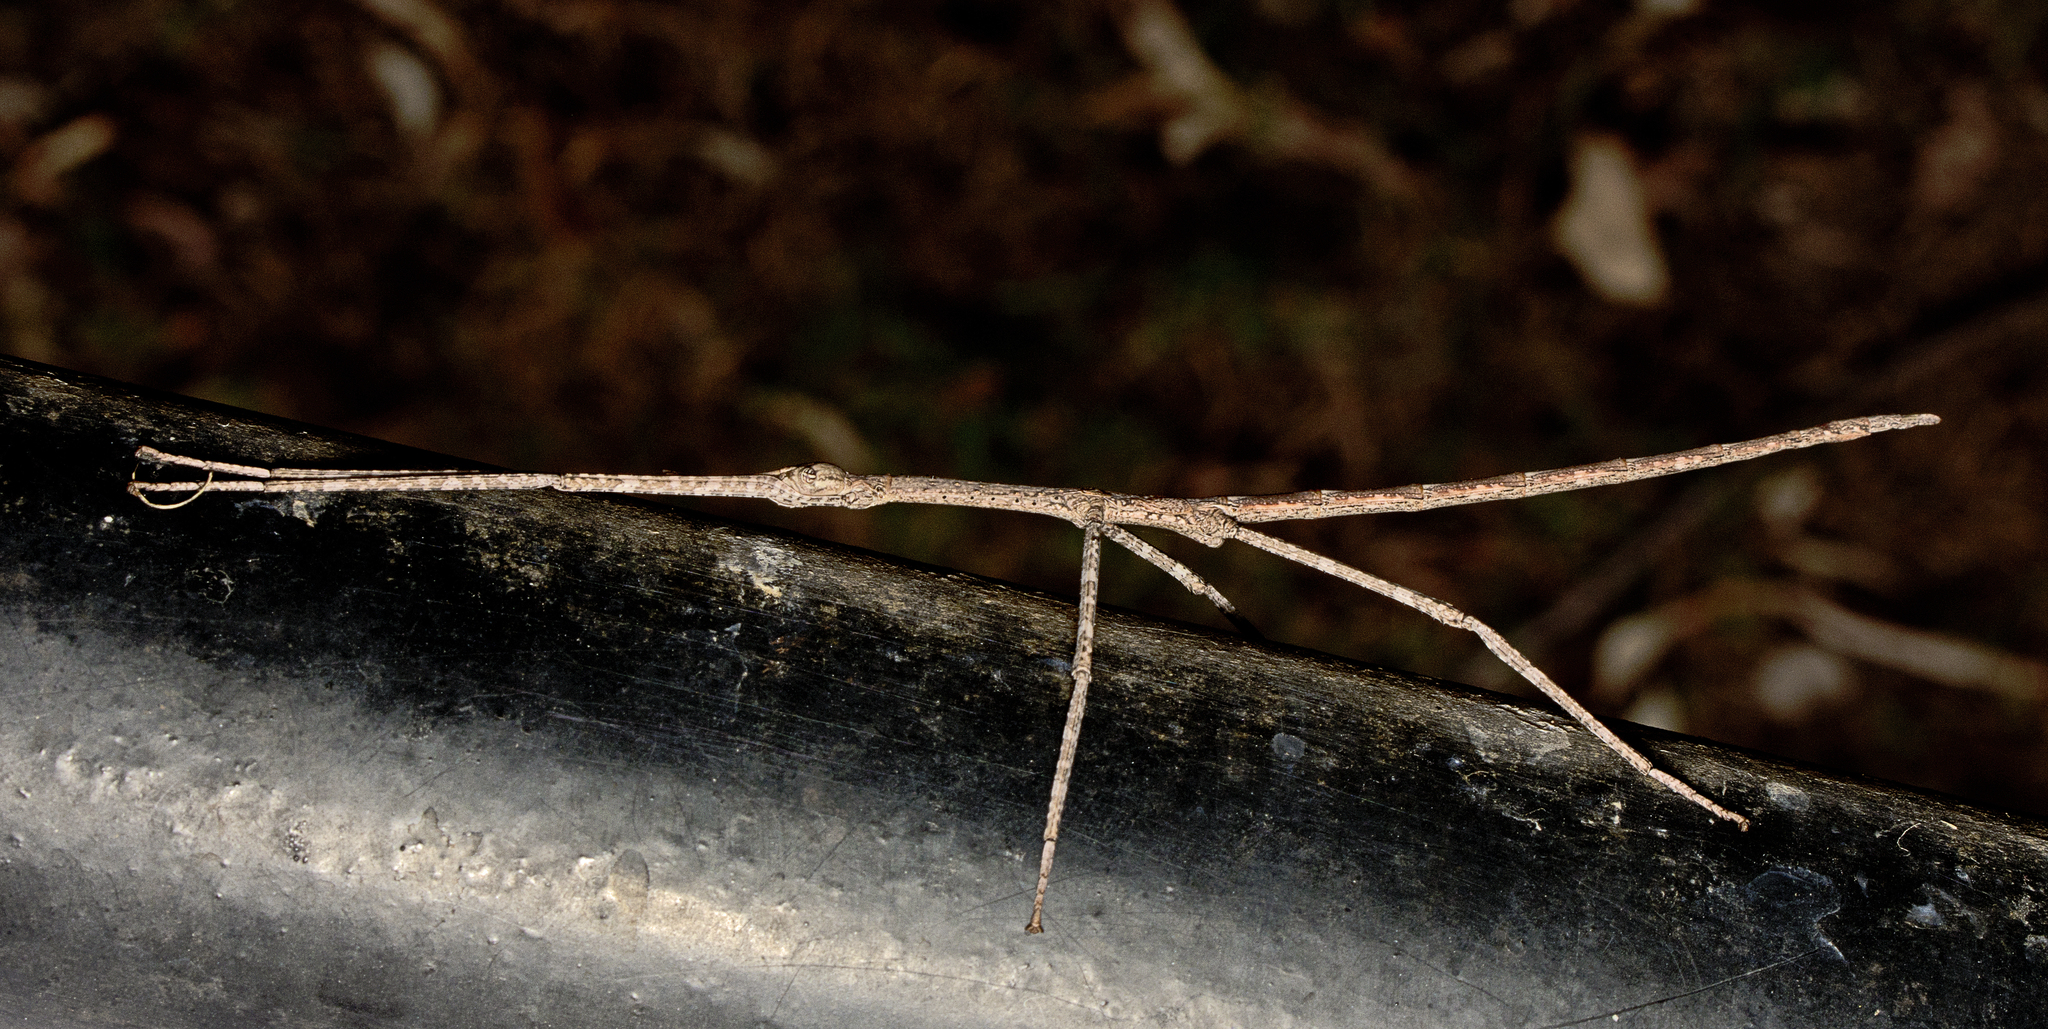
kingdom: Animalia
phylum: Arthropoda
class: Insecta
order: Phasmida
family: Phasmatidae
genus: Anchiale
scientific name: Anchiale austrotessulata
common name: Tessellated stick-insect
